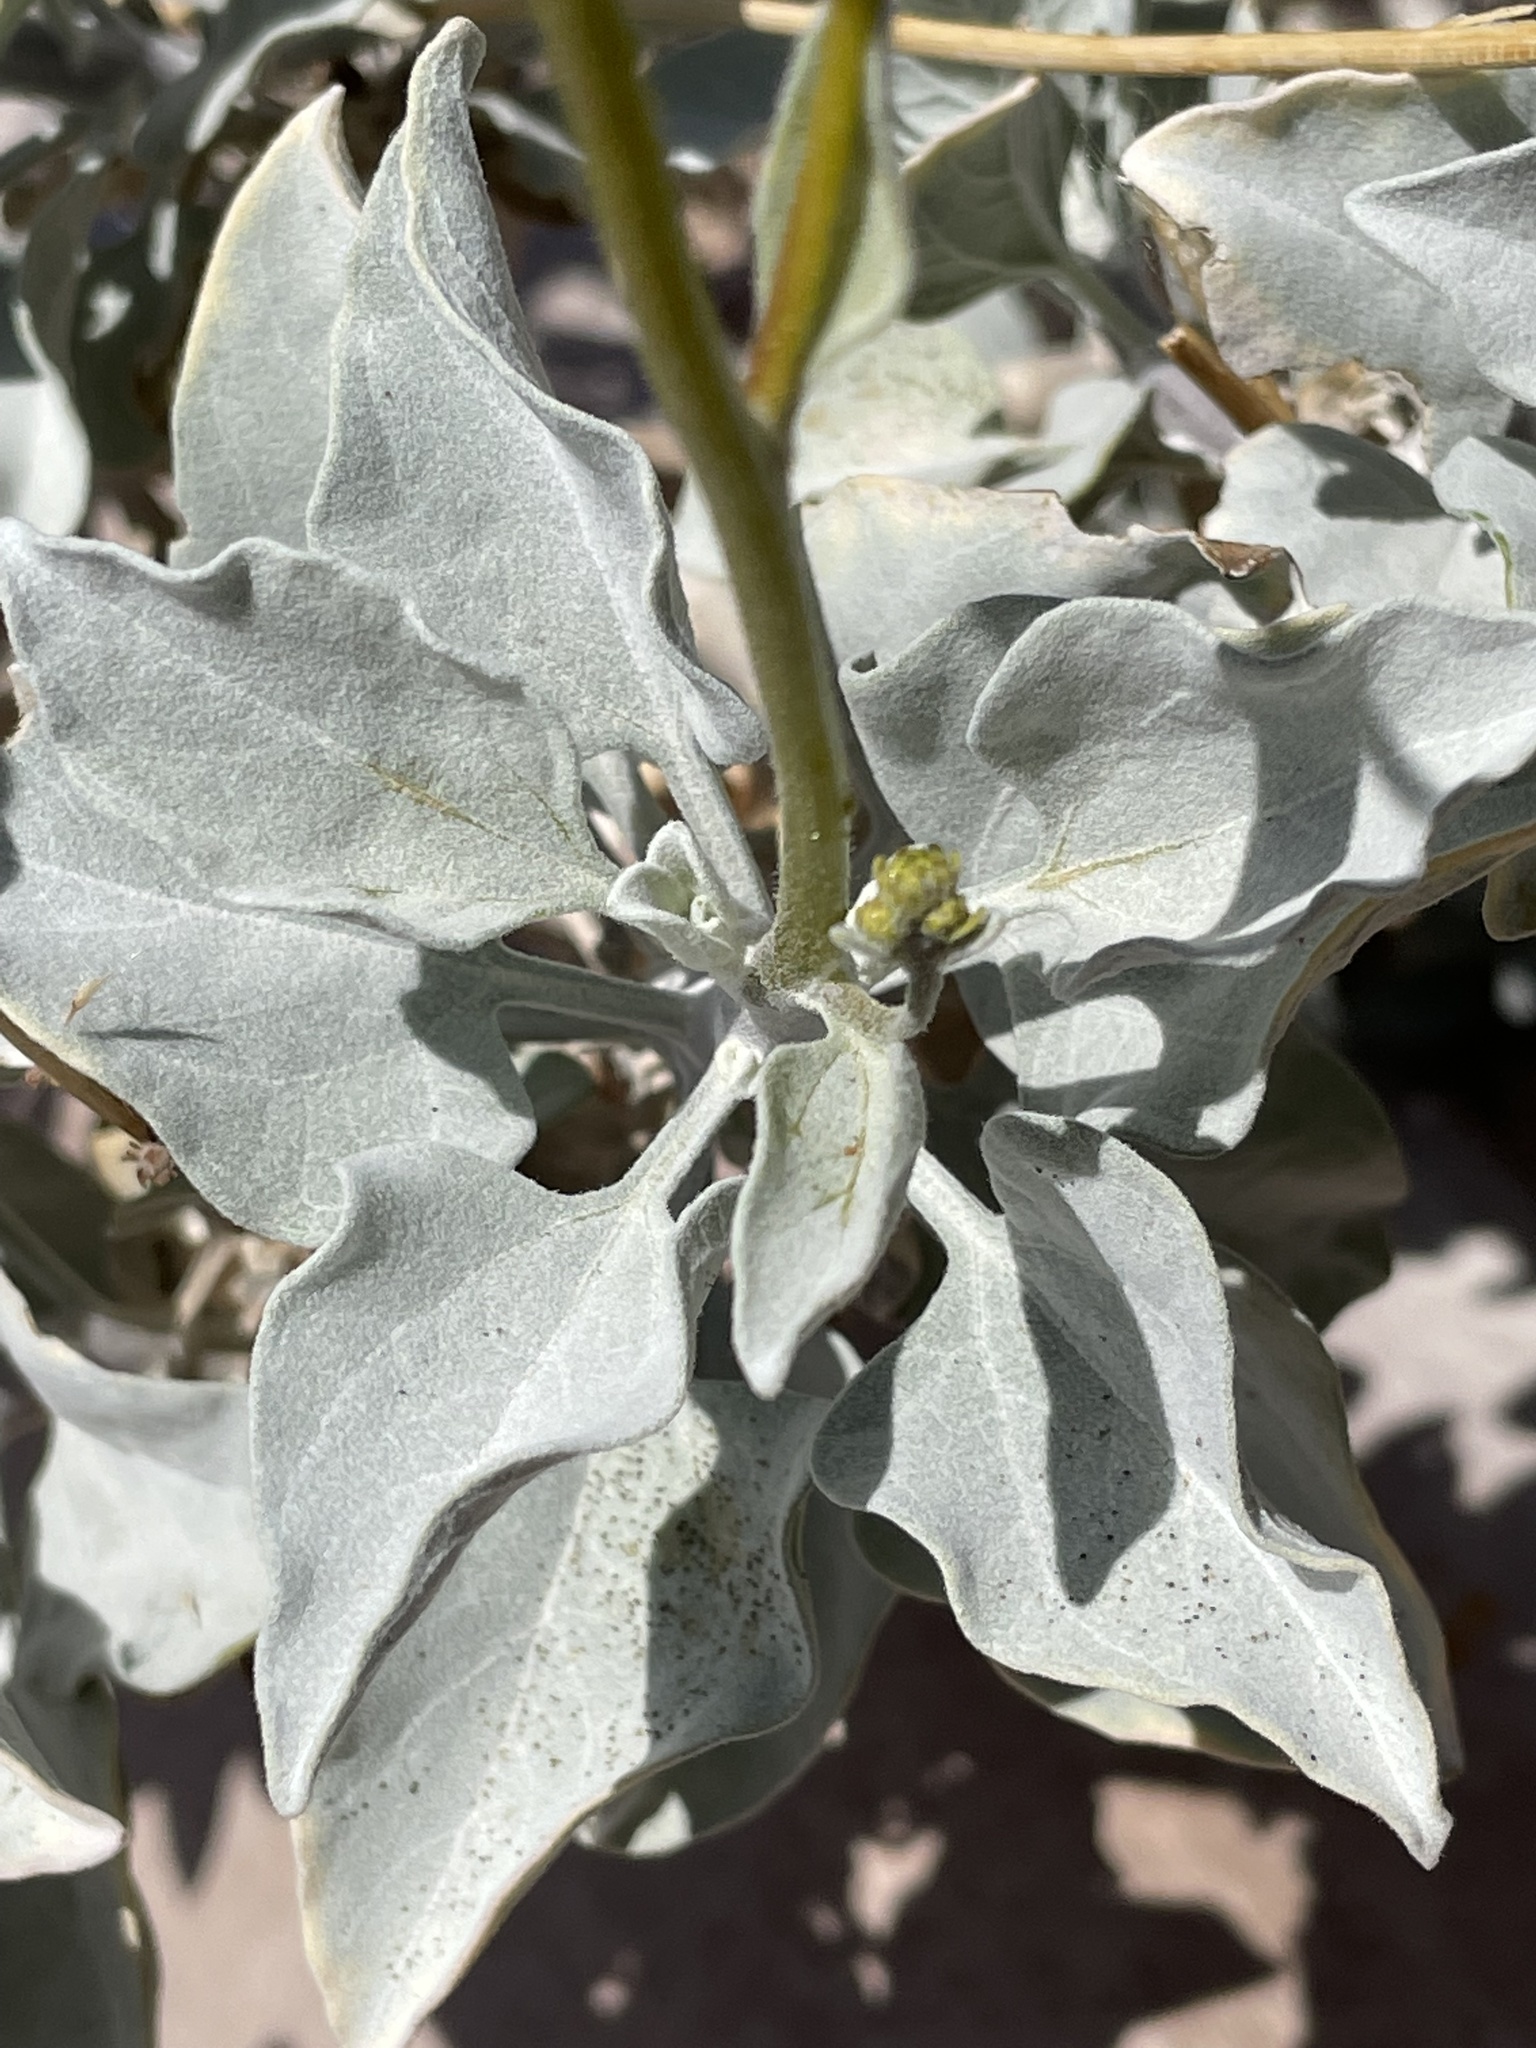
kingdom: Plantae
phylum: Tracheophyta
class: Magnoliopsida
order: Asterales
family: Asteraceae
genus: Encelia
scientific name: Encelia farinosa
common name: Brittlebush
